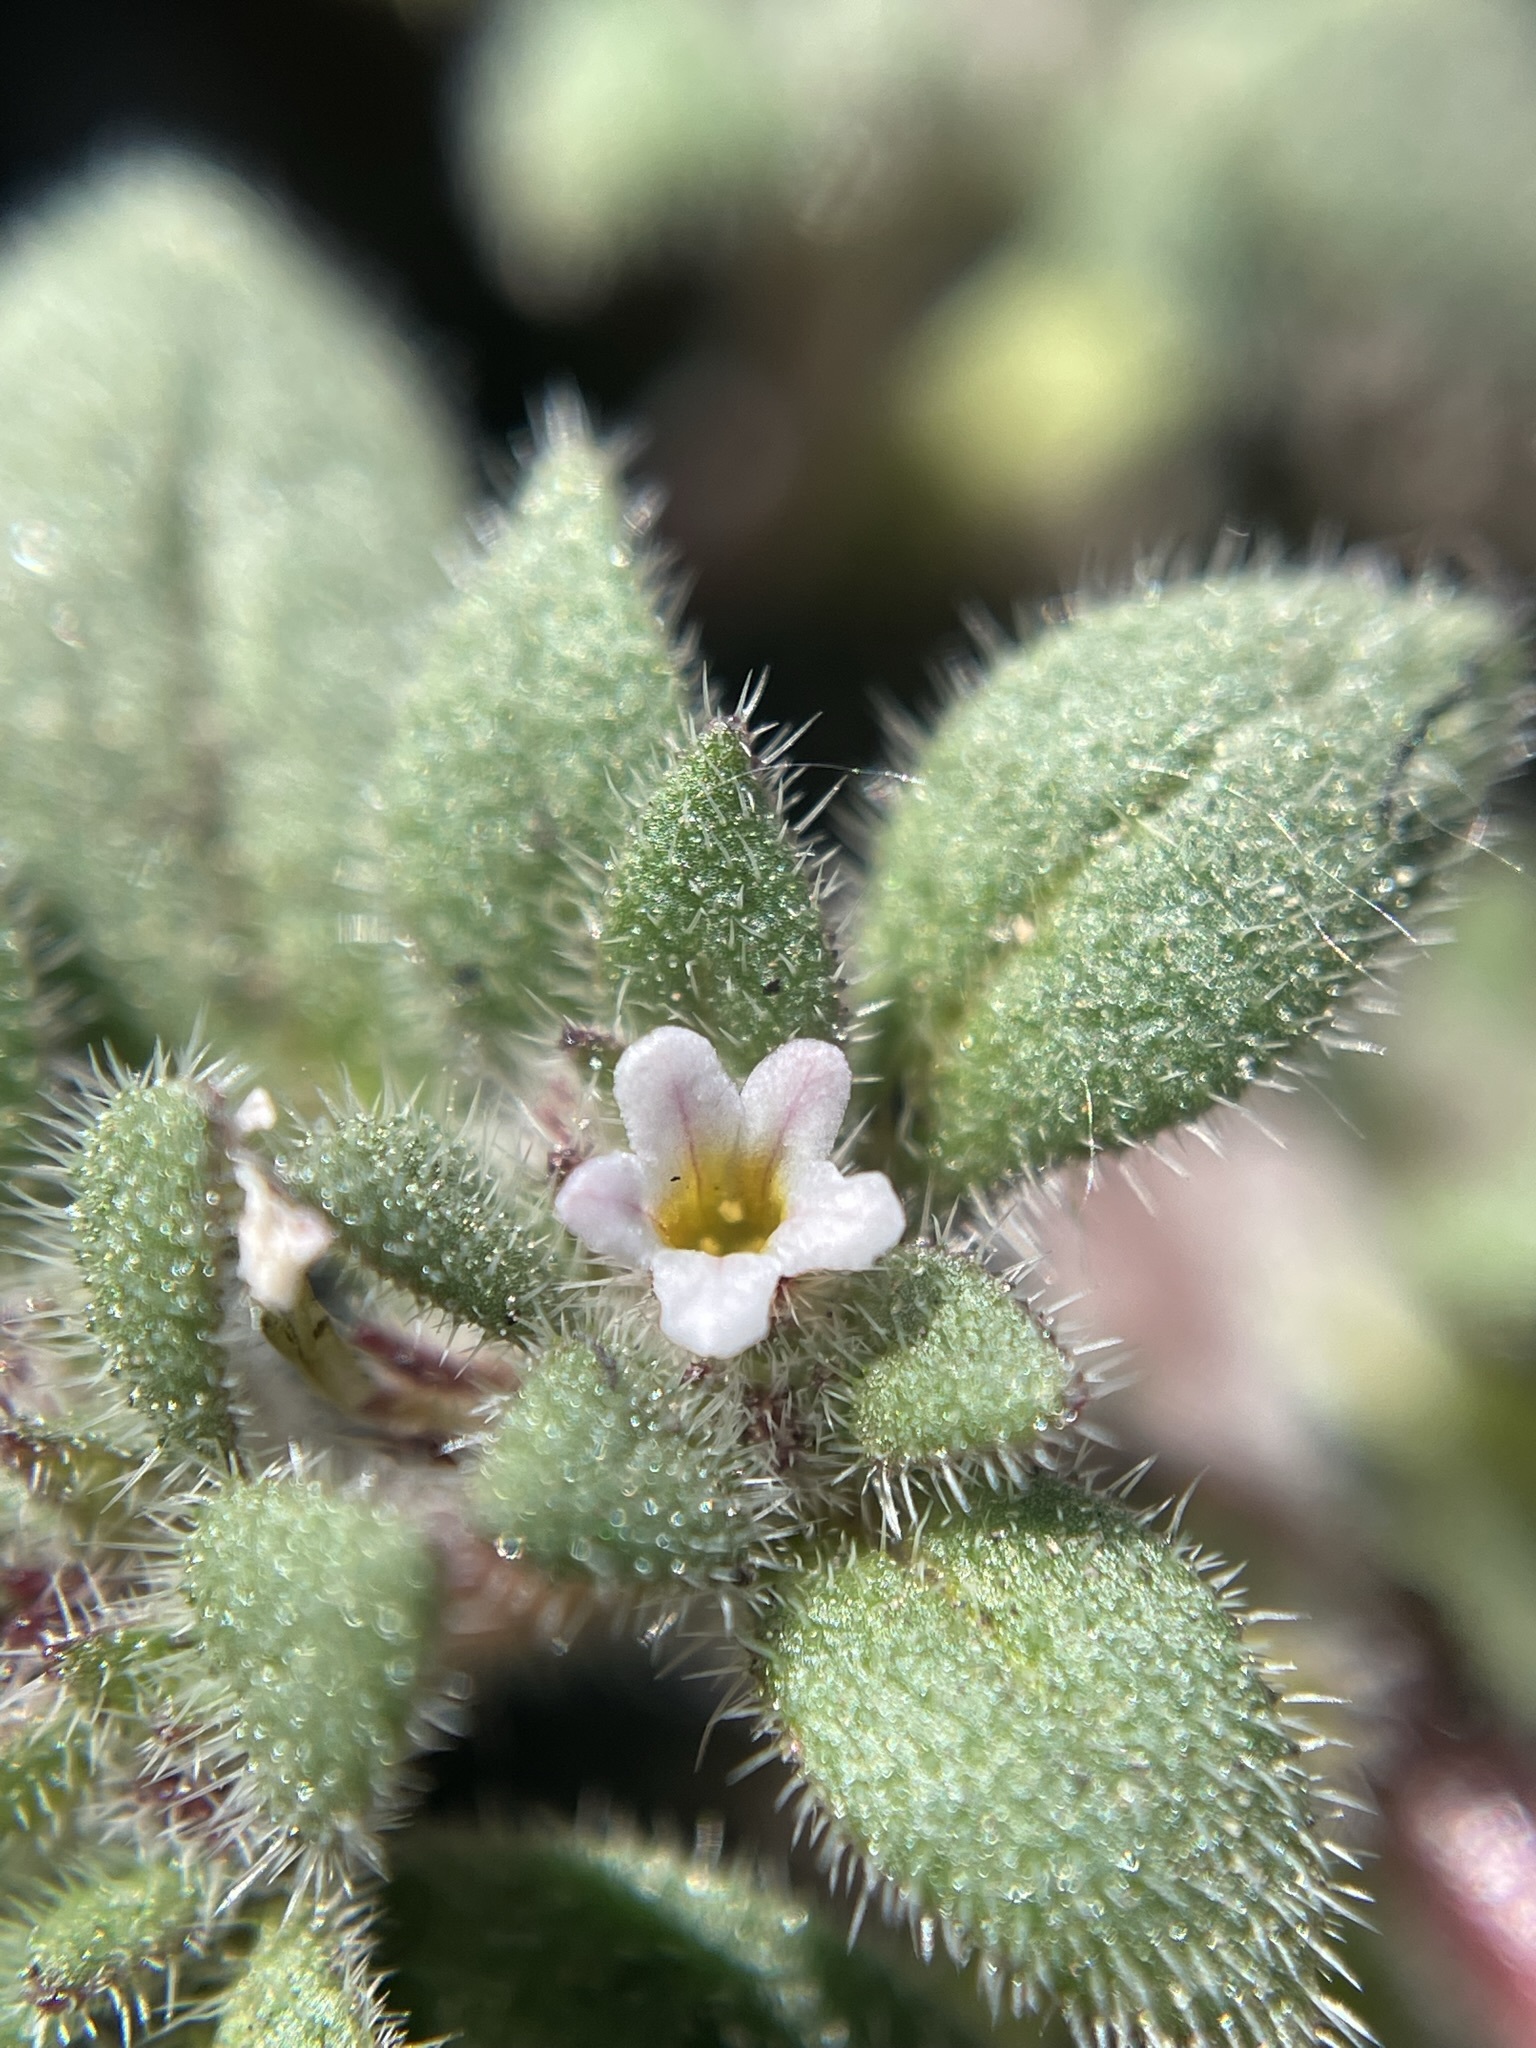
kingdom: Plantae
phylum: Tracheophyta
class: Magnoliopsida
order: Boraginales
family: Namaceae
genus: Nama
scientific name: Nama densa
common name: Leafy nama
